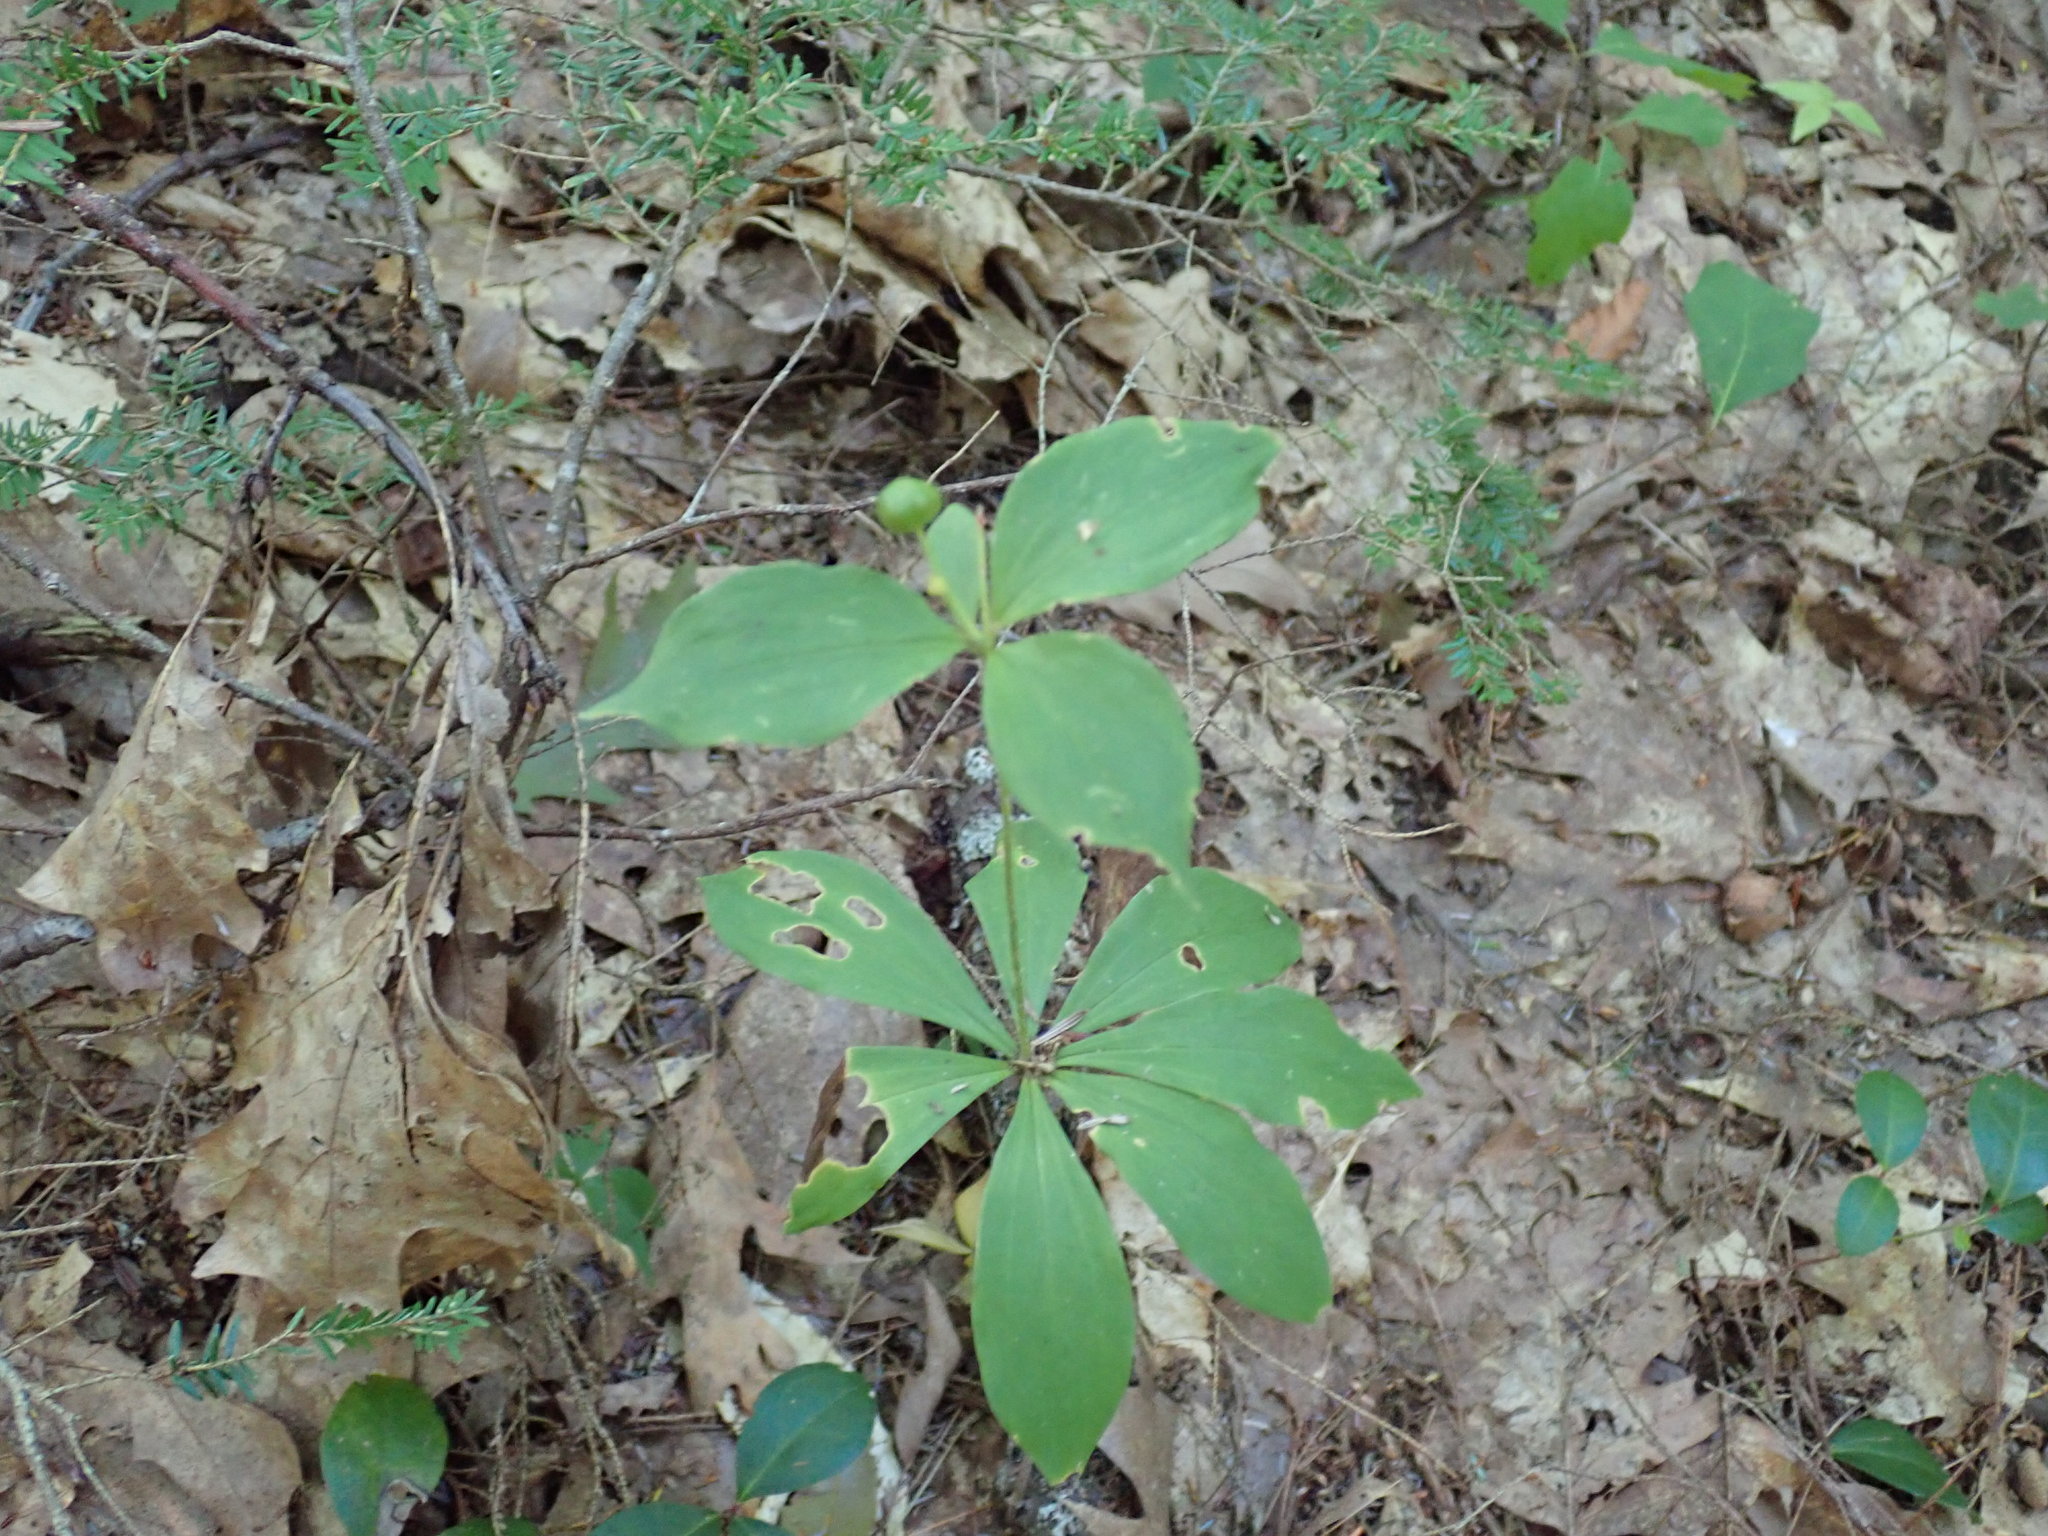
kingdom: Plantae
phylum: Tracheophyta
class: Liliopsida
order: Liliales
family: Liliaceae
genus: Medeola
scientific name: Medeola virginiana
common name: Indian cucumber-root
